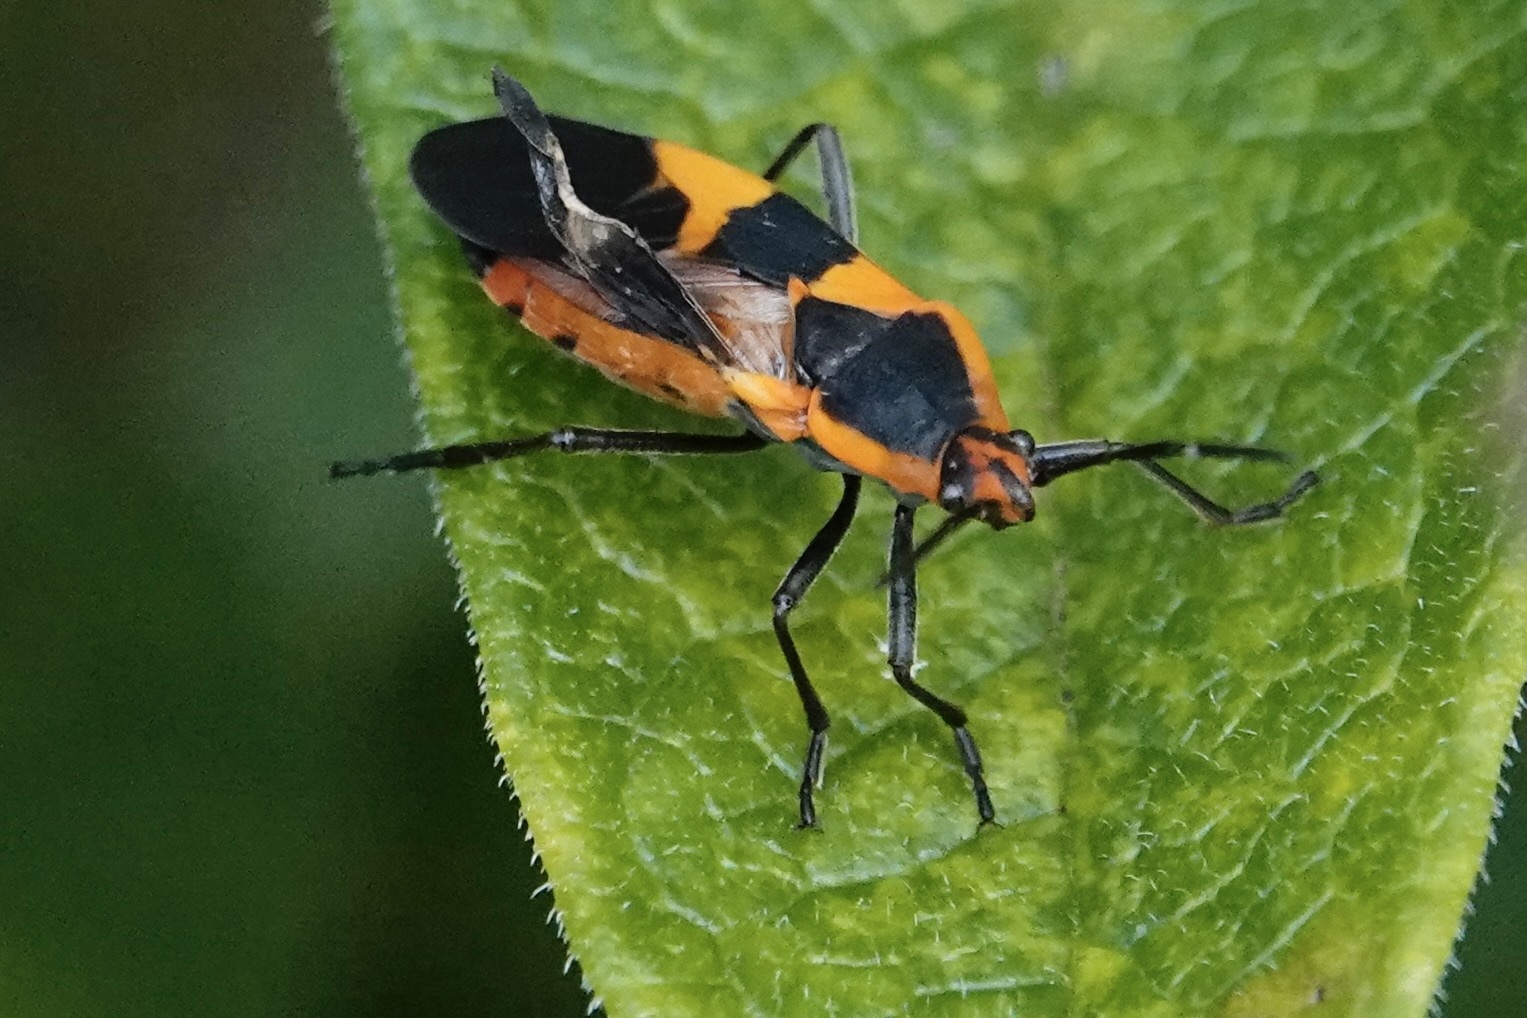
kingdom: Animalia
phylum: Arthropoda
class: Insecta
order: Hemiptera
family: Lygaeidae
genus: Oncopeltus
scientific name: Oncopeltus fasciatus
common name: Large milkweed bug
